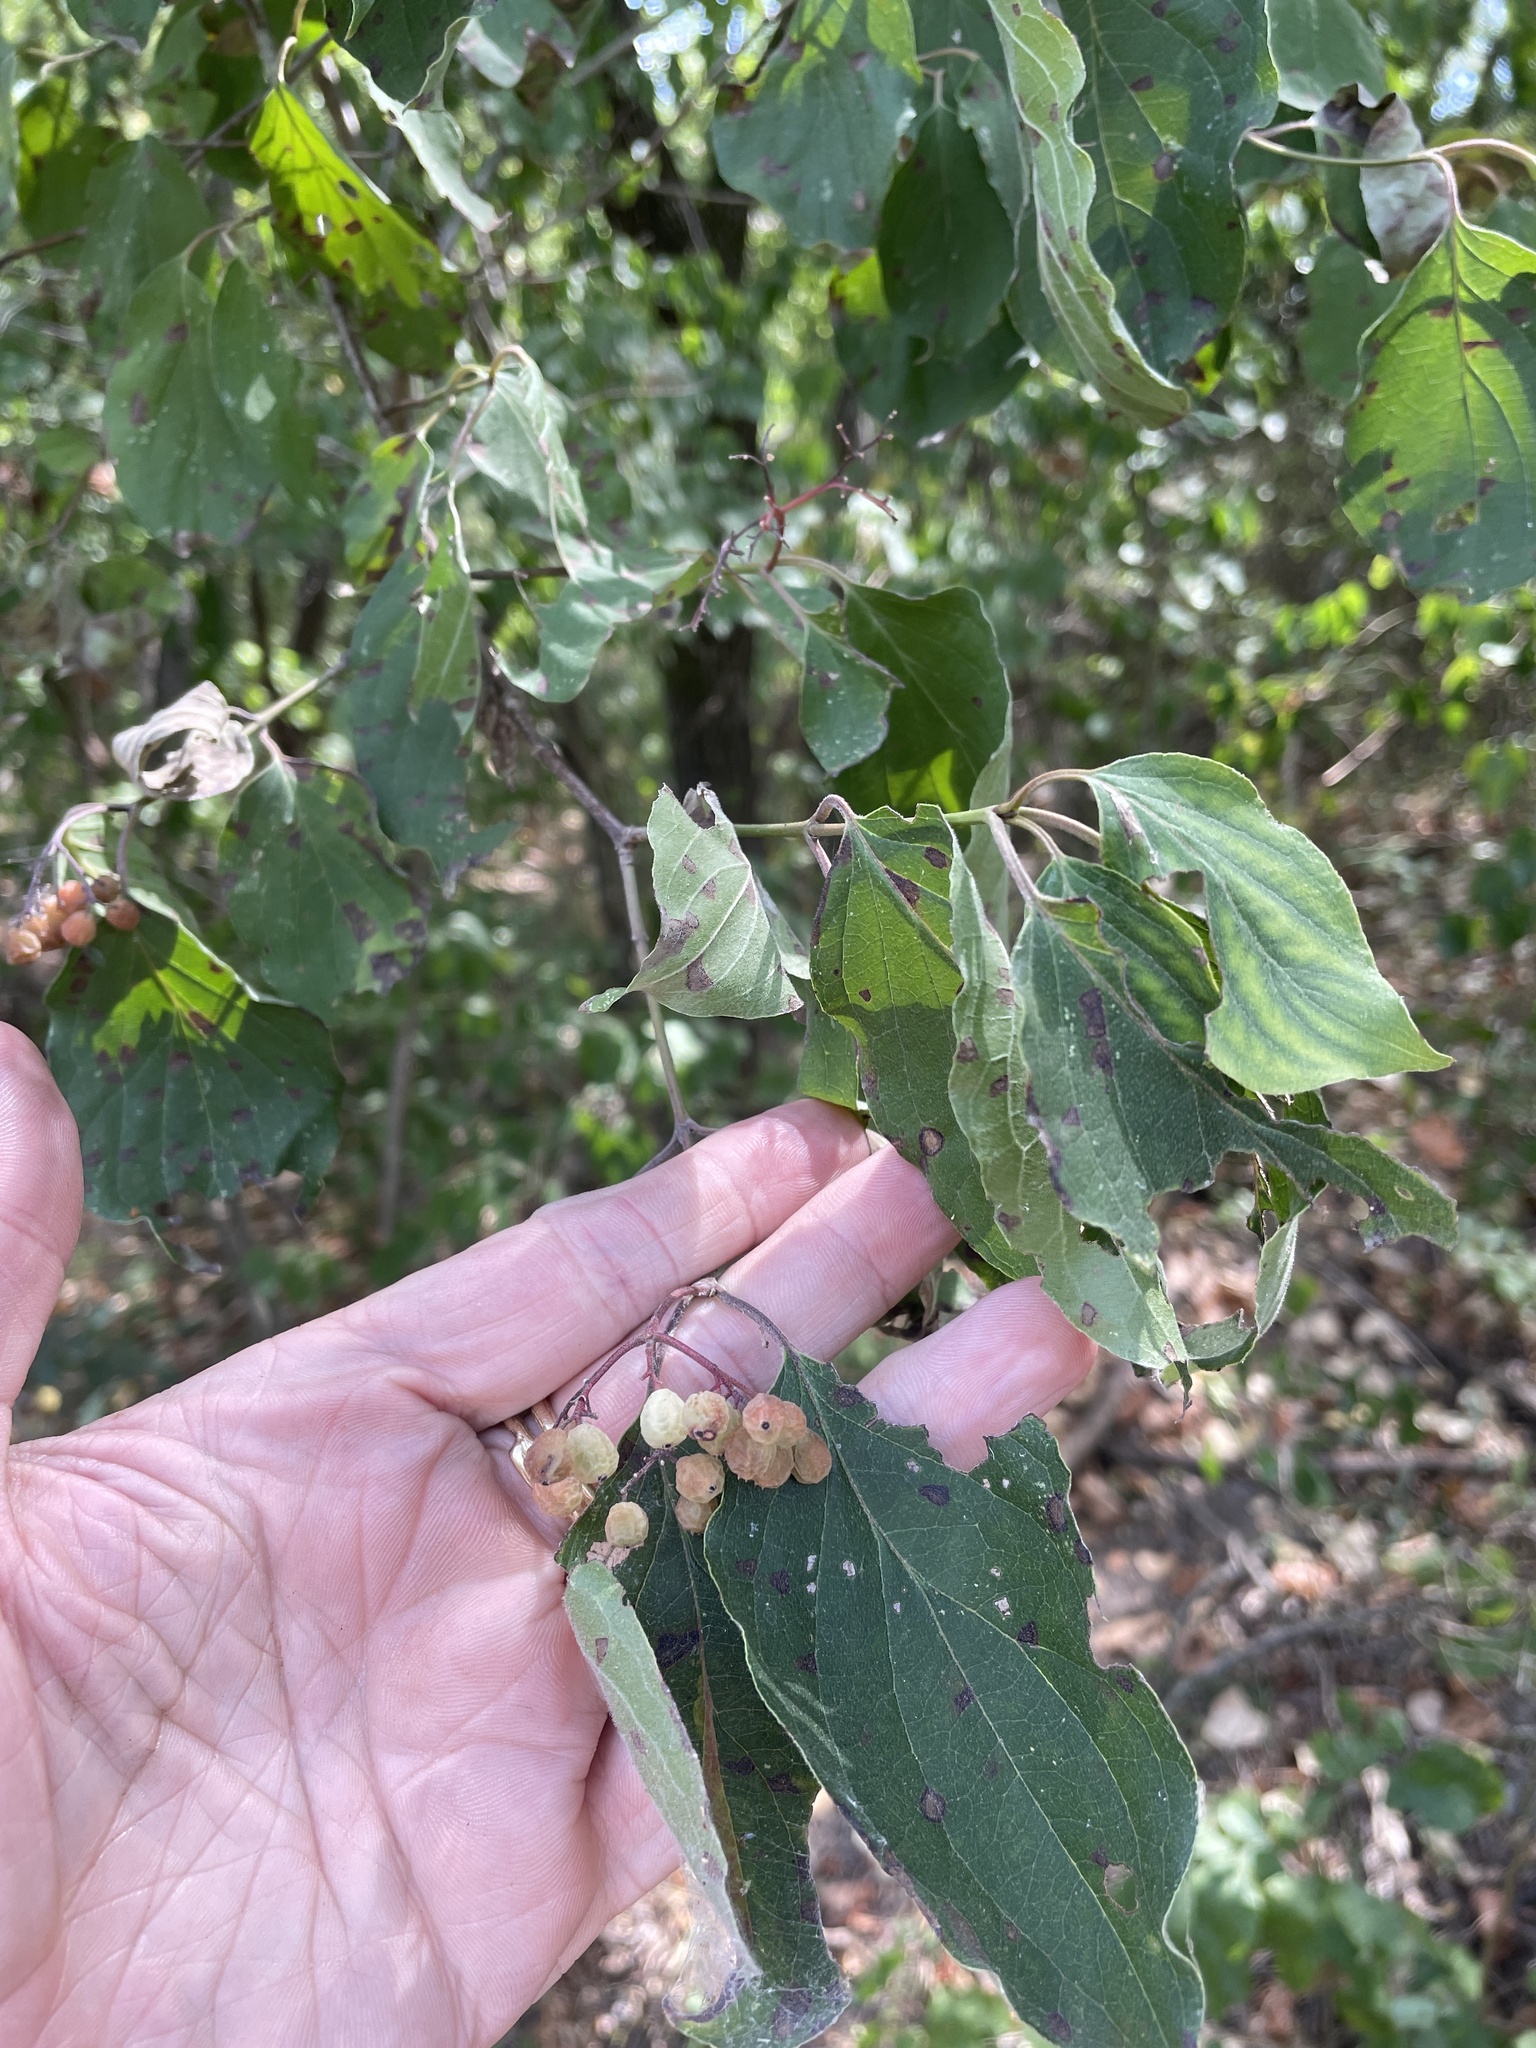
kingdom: Plantae
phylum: Tracheophyta
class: Magnoliopsida
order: Cornales
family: Cornaceae
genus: Cornus
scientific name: Cornus drummondii
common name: Rough-leaf dogwood
